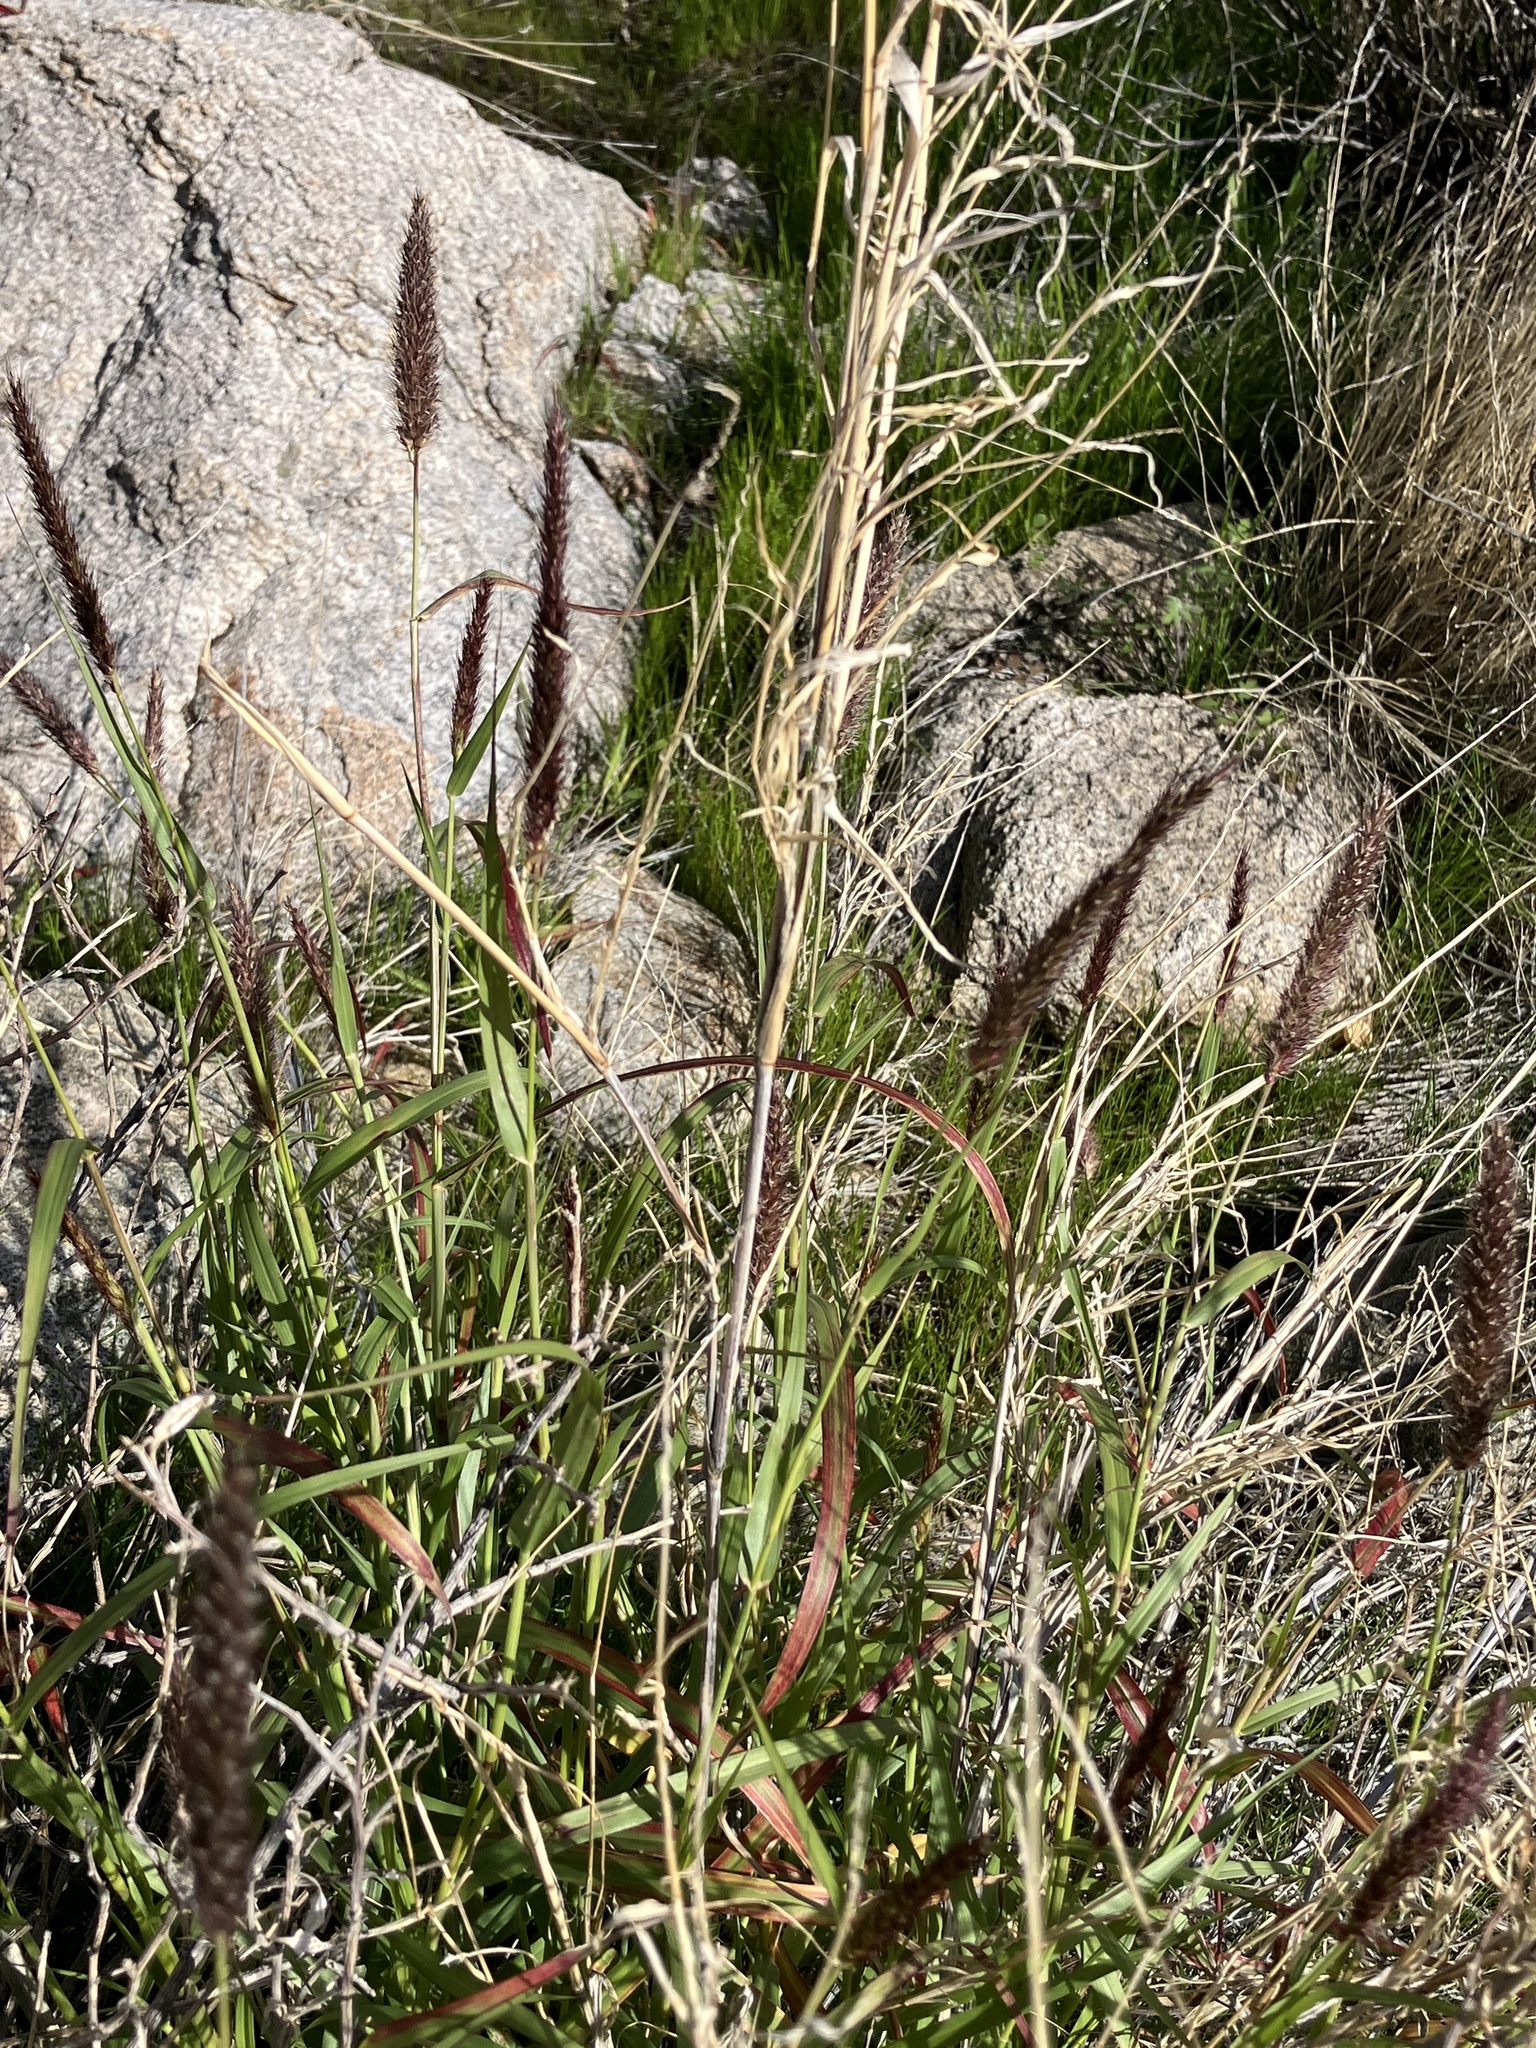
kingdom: Plantae
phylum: Tracheophyta
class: Liliopsida
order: Poales
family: Poaceae
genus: Cenchrus
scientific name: Cenchrus ciliaris
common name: Buffelgrass
